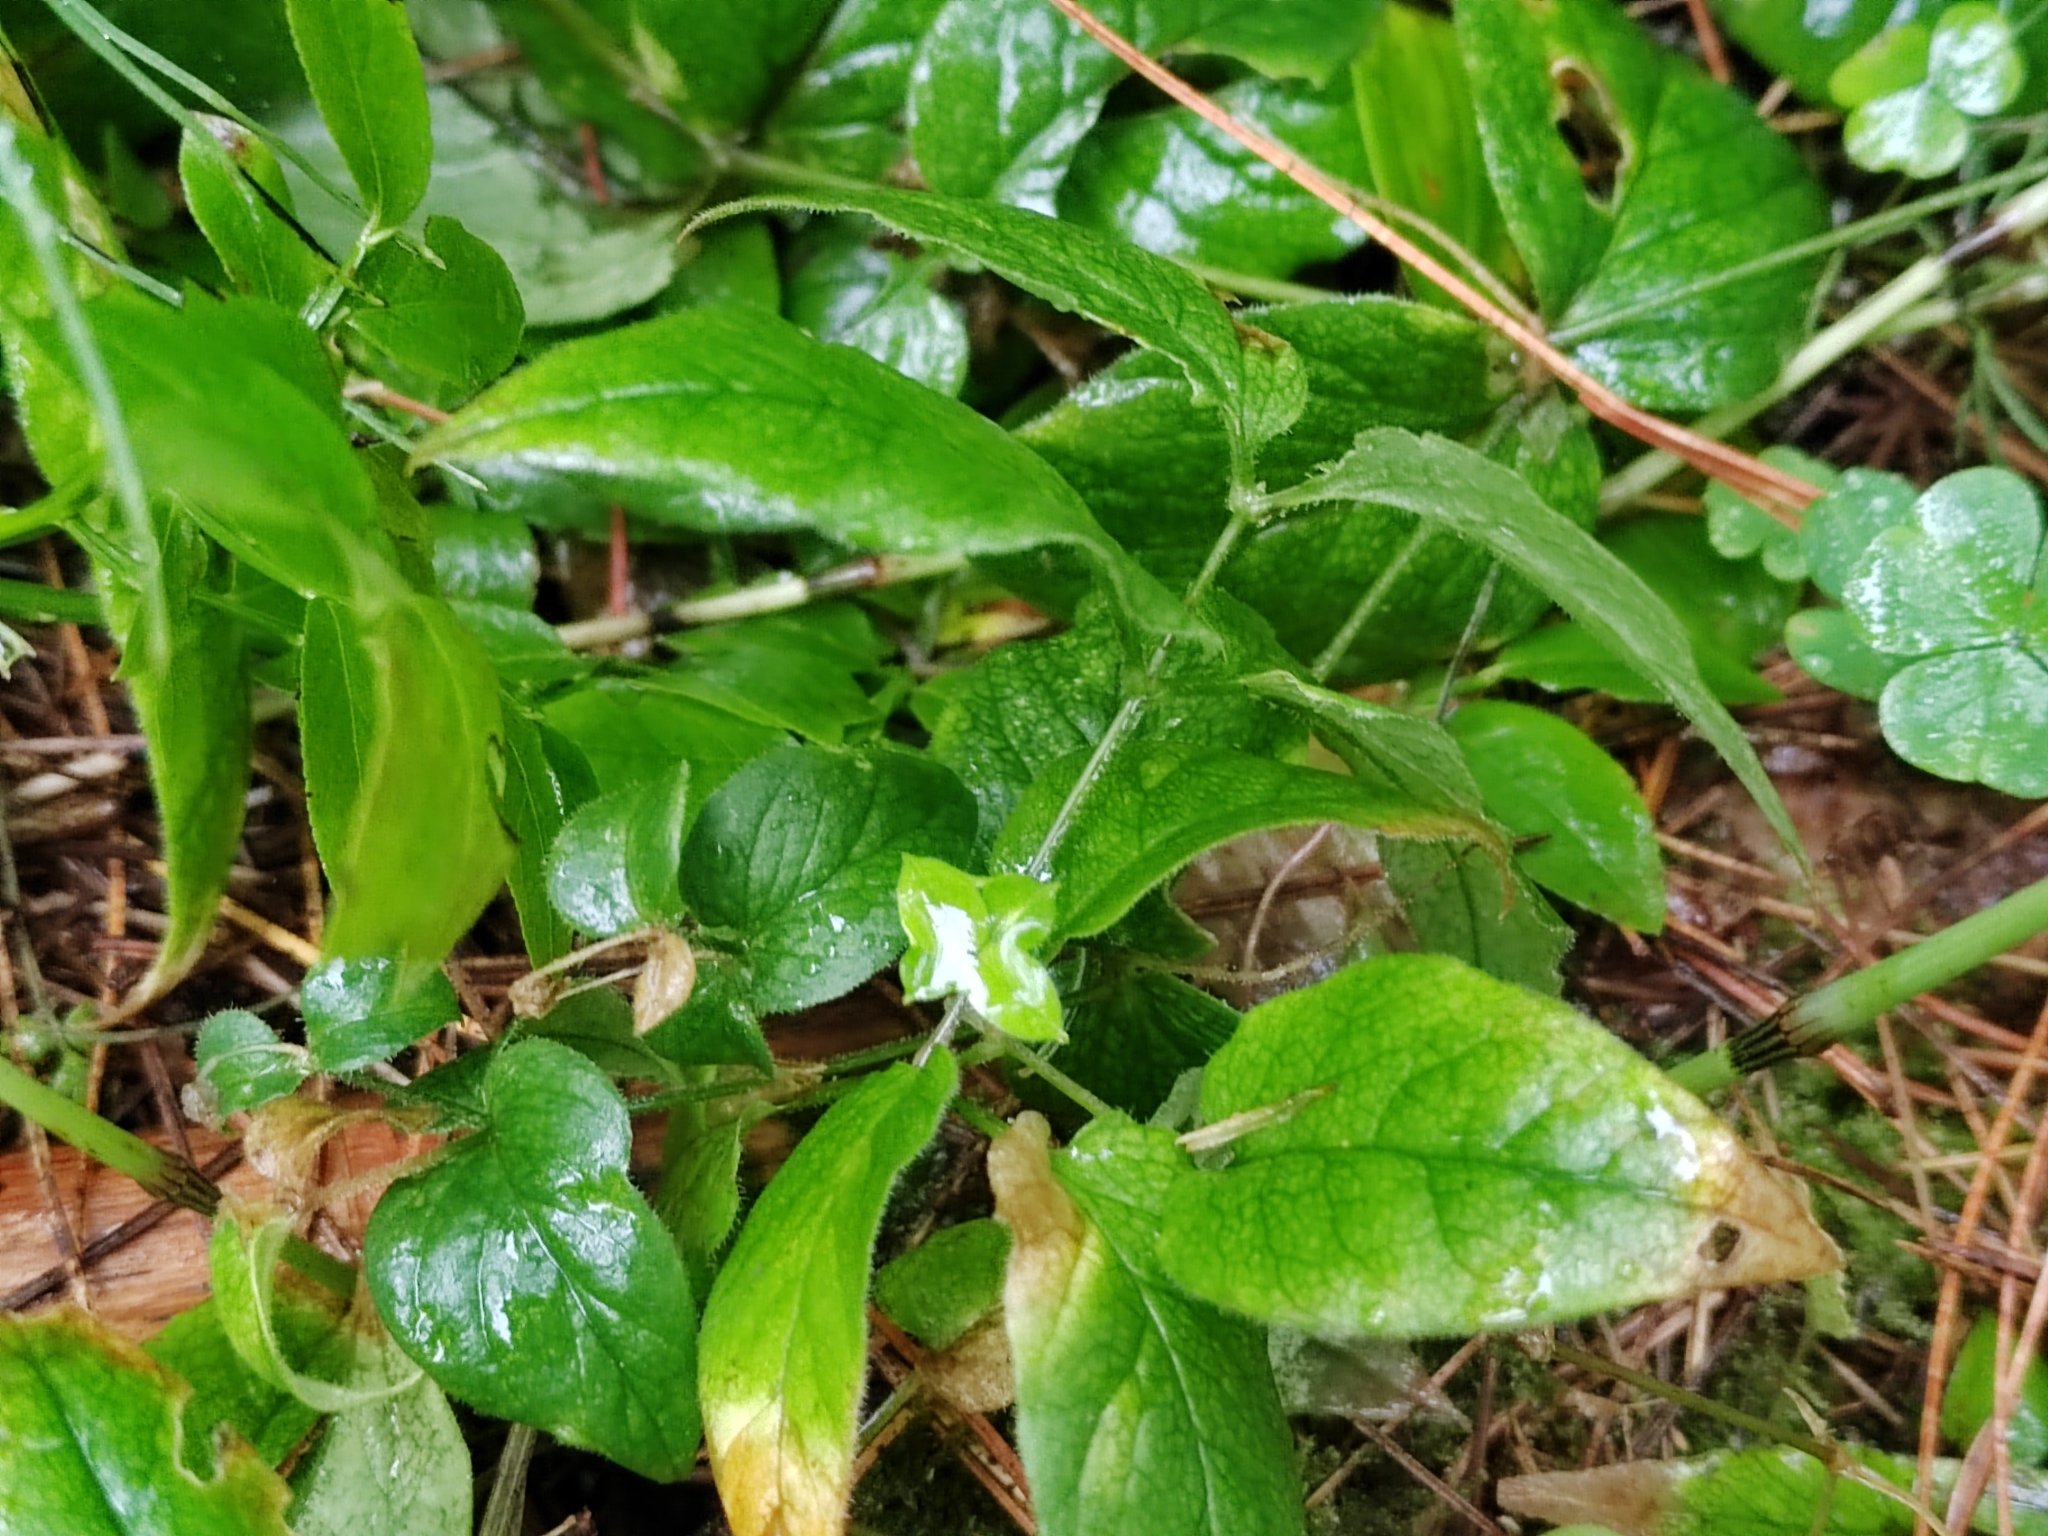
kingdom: Plantae
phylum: Tracheophyta
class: Magnoliopsida
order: Caryophyllales
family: Caryophyllaceae
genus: Stellaria
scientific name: Stellaria bungeana
